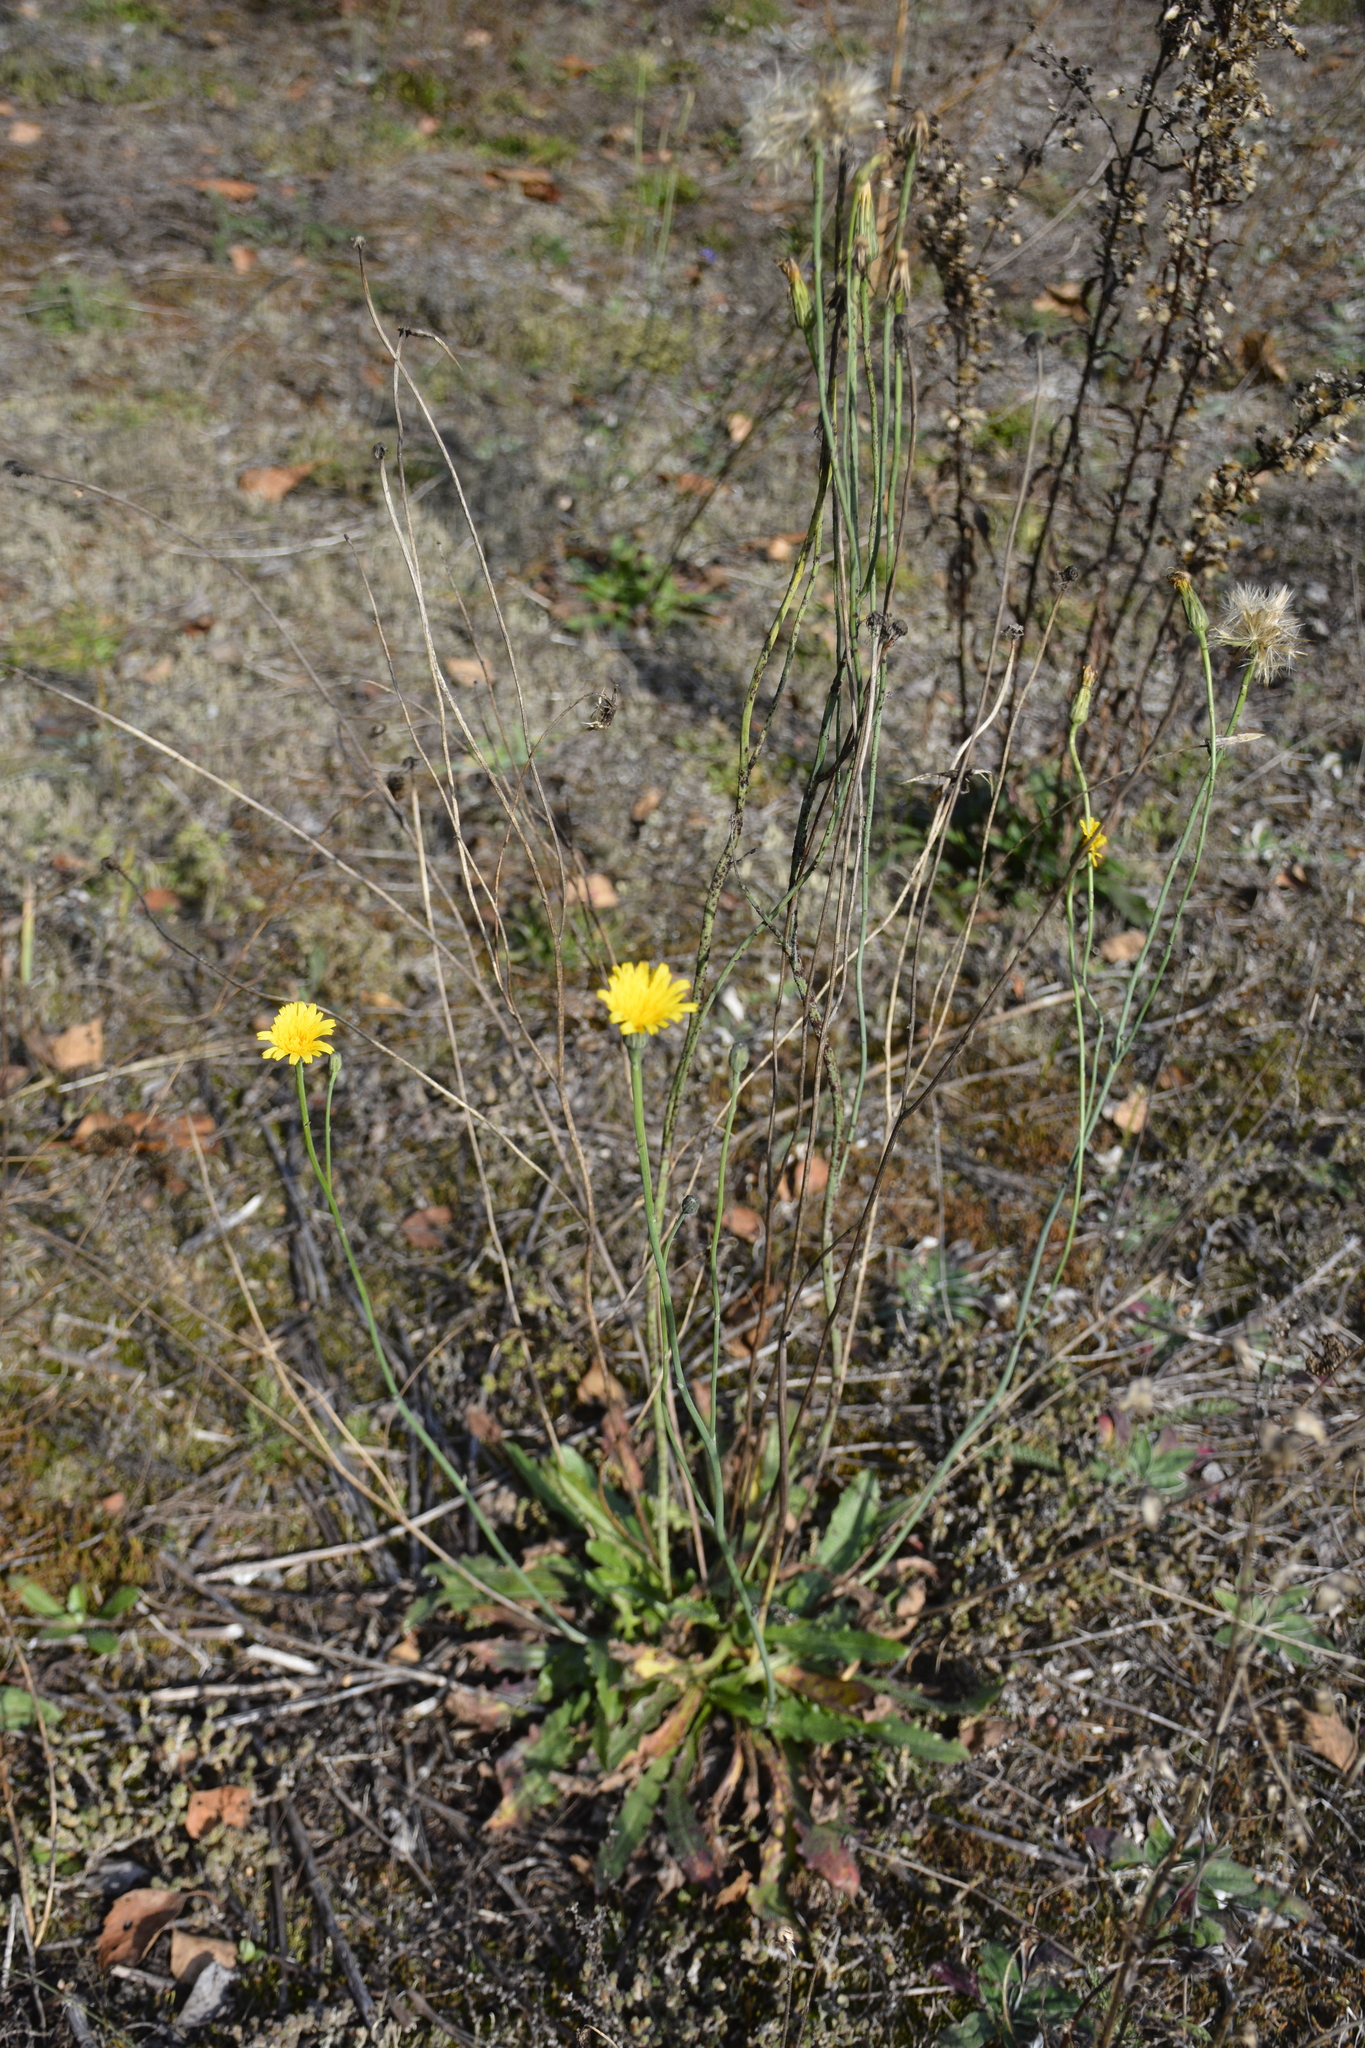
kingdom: Plantae
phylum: Tracheophyta
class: Magnoliopsida
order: Asterales
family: Asteraceae
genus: Hypochaeris
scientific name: Hypochaeris radicata
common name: Flatweed
